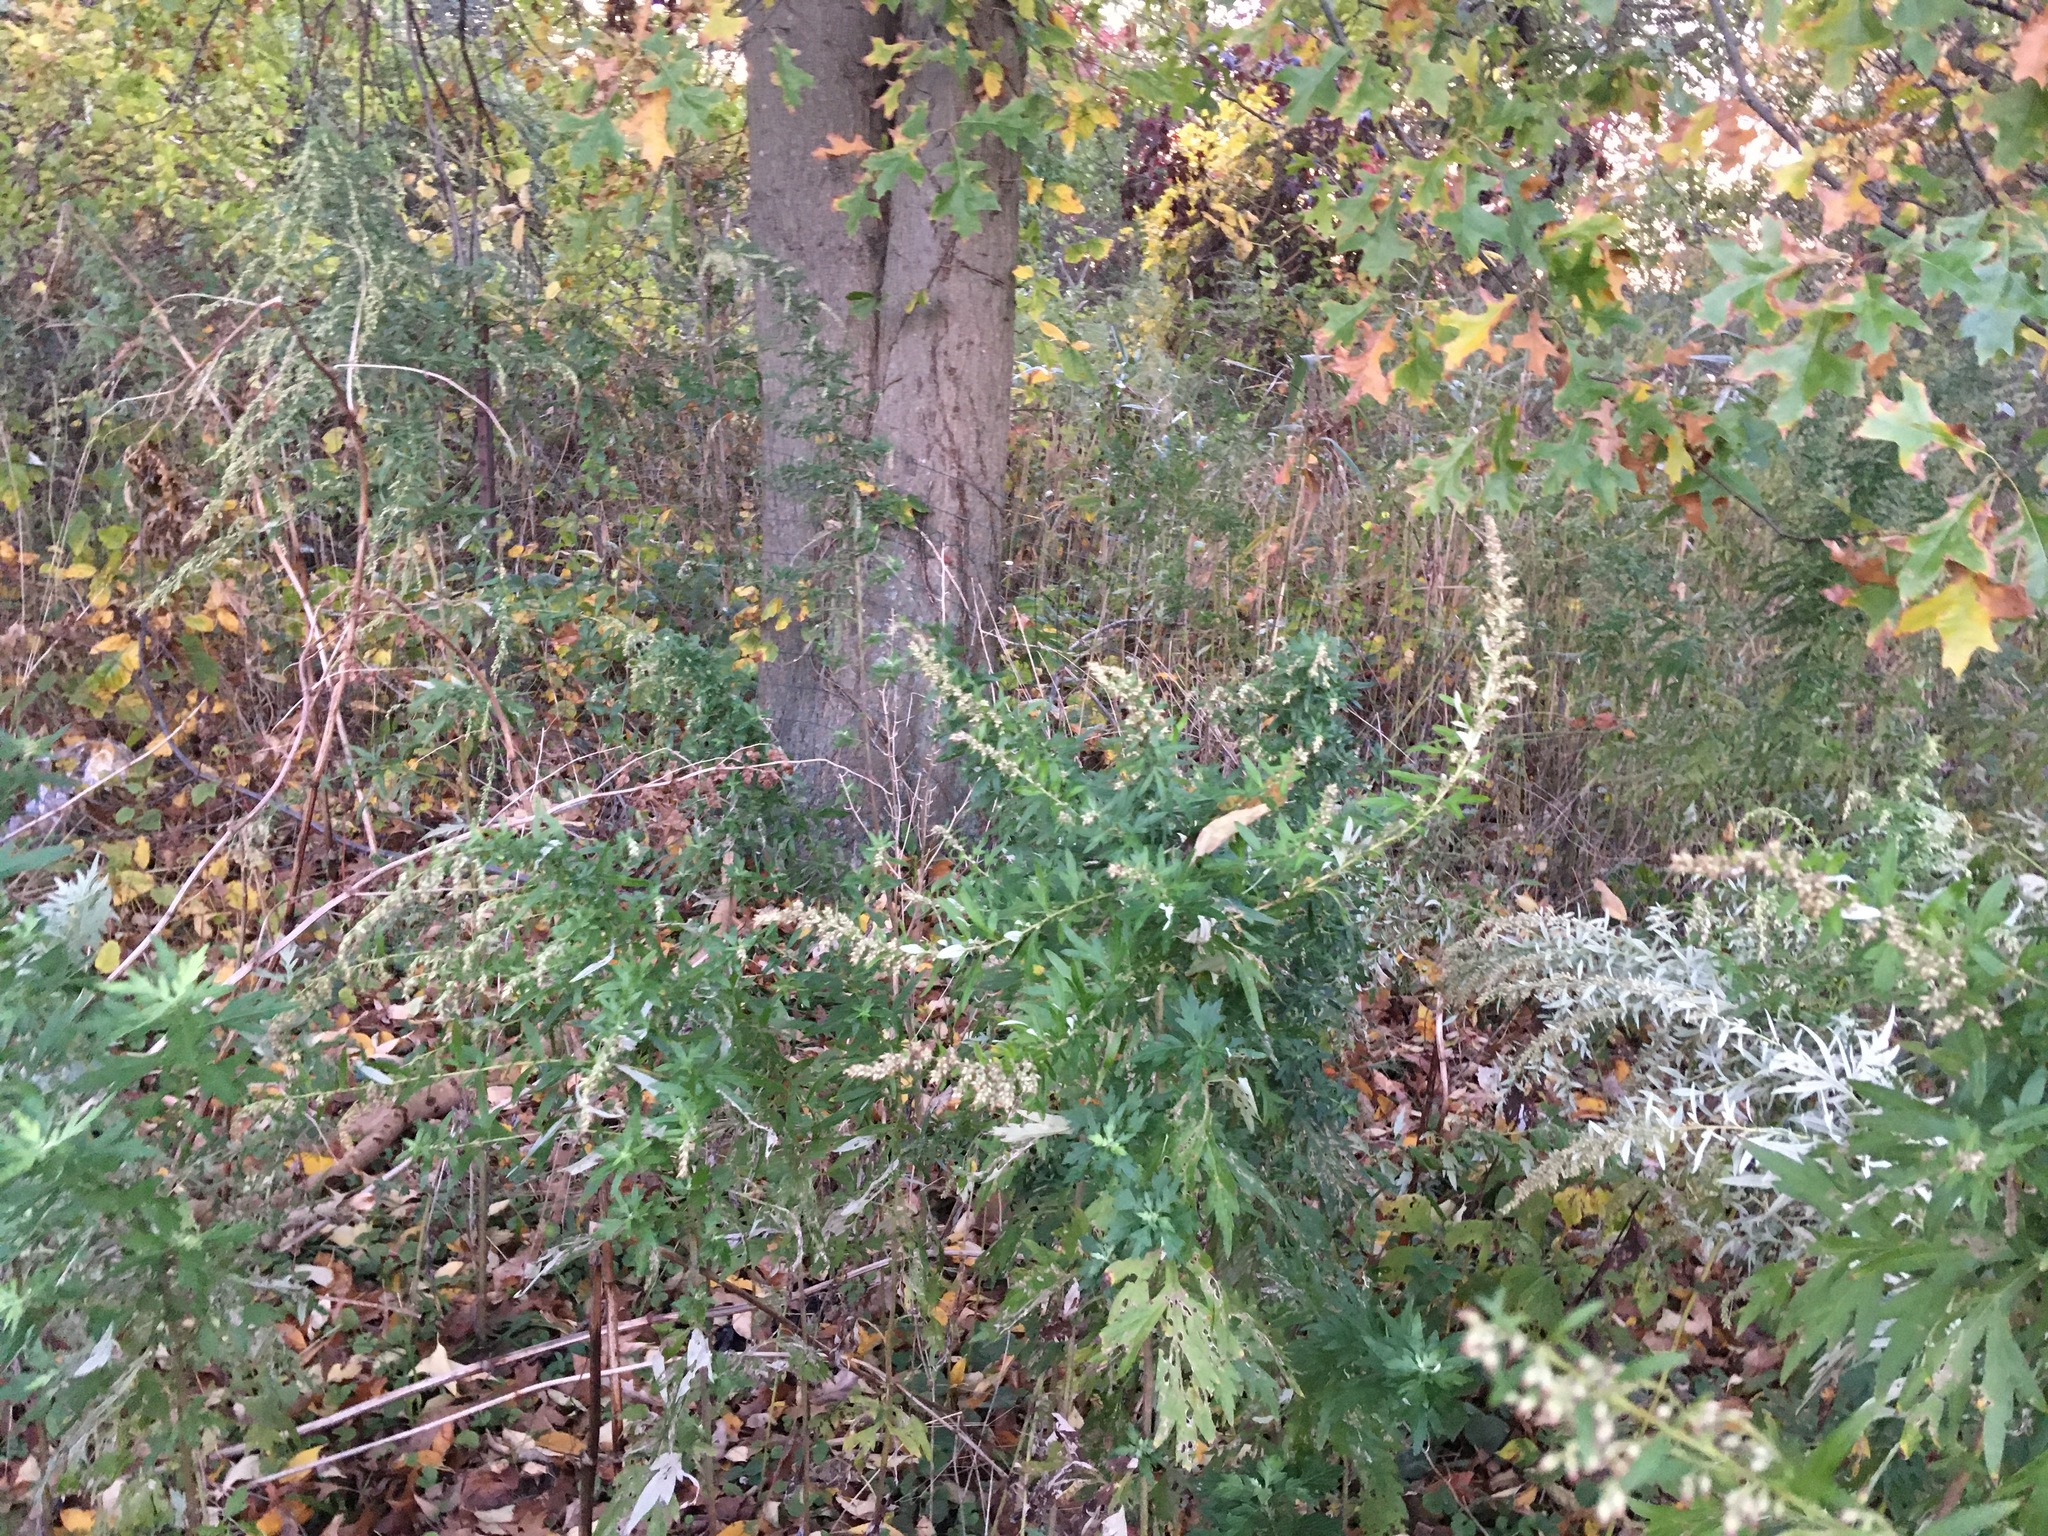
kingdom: Plantae
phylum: Tracheophyta
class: Magnoliopsida
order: Asterales
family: Asteraceae
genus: Artemisia
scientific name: Artemisia vulgaris
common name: Mugwort
